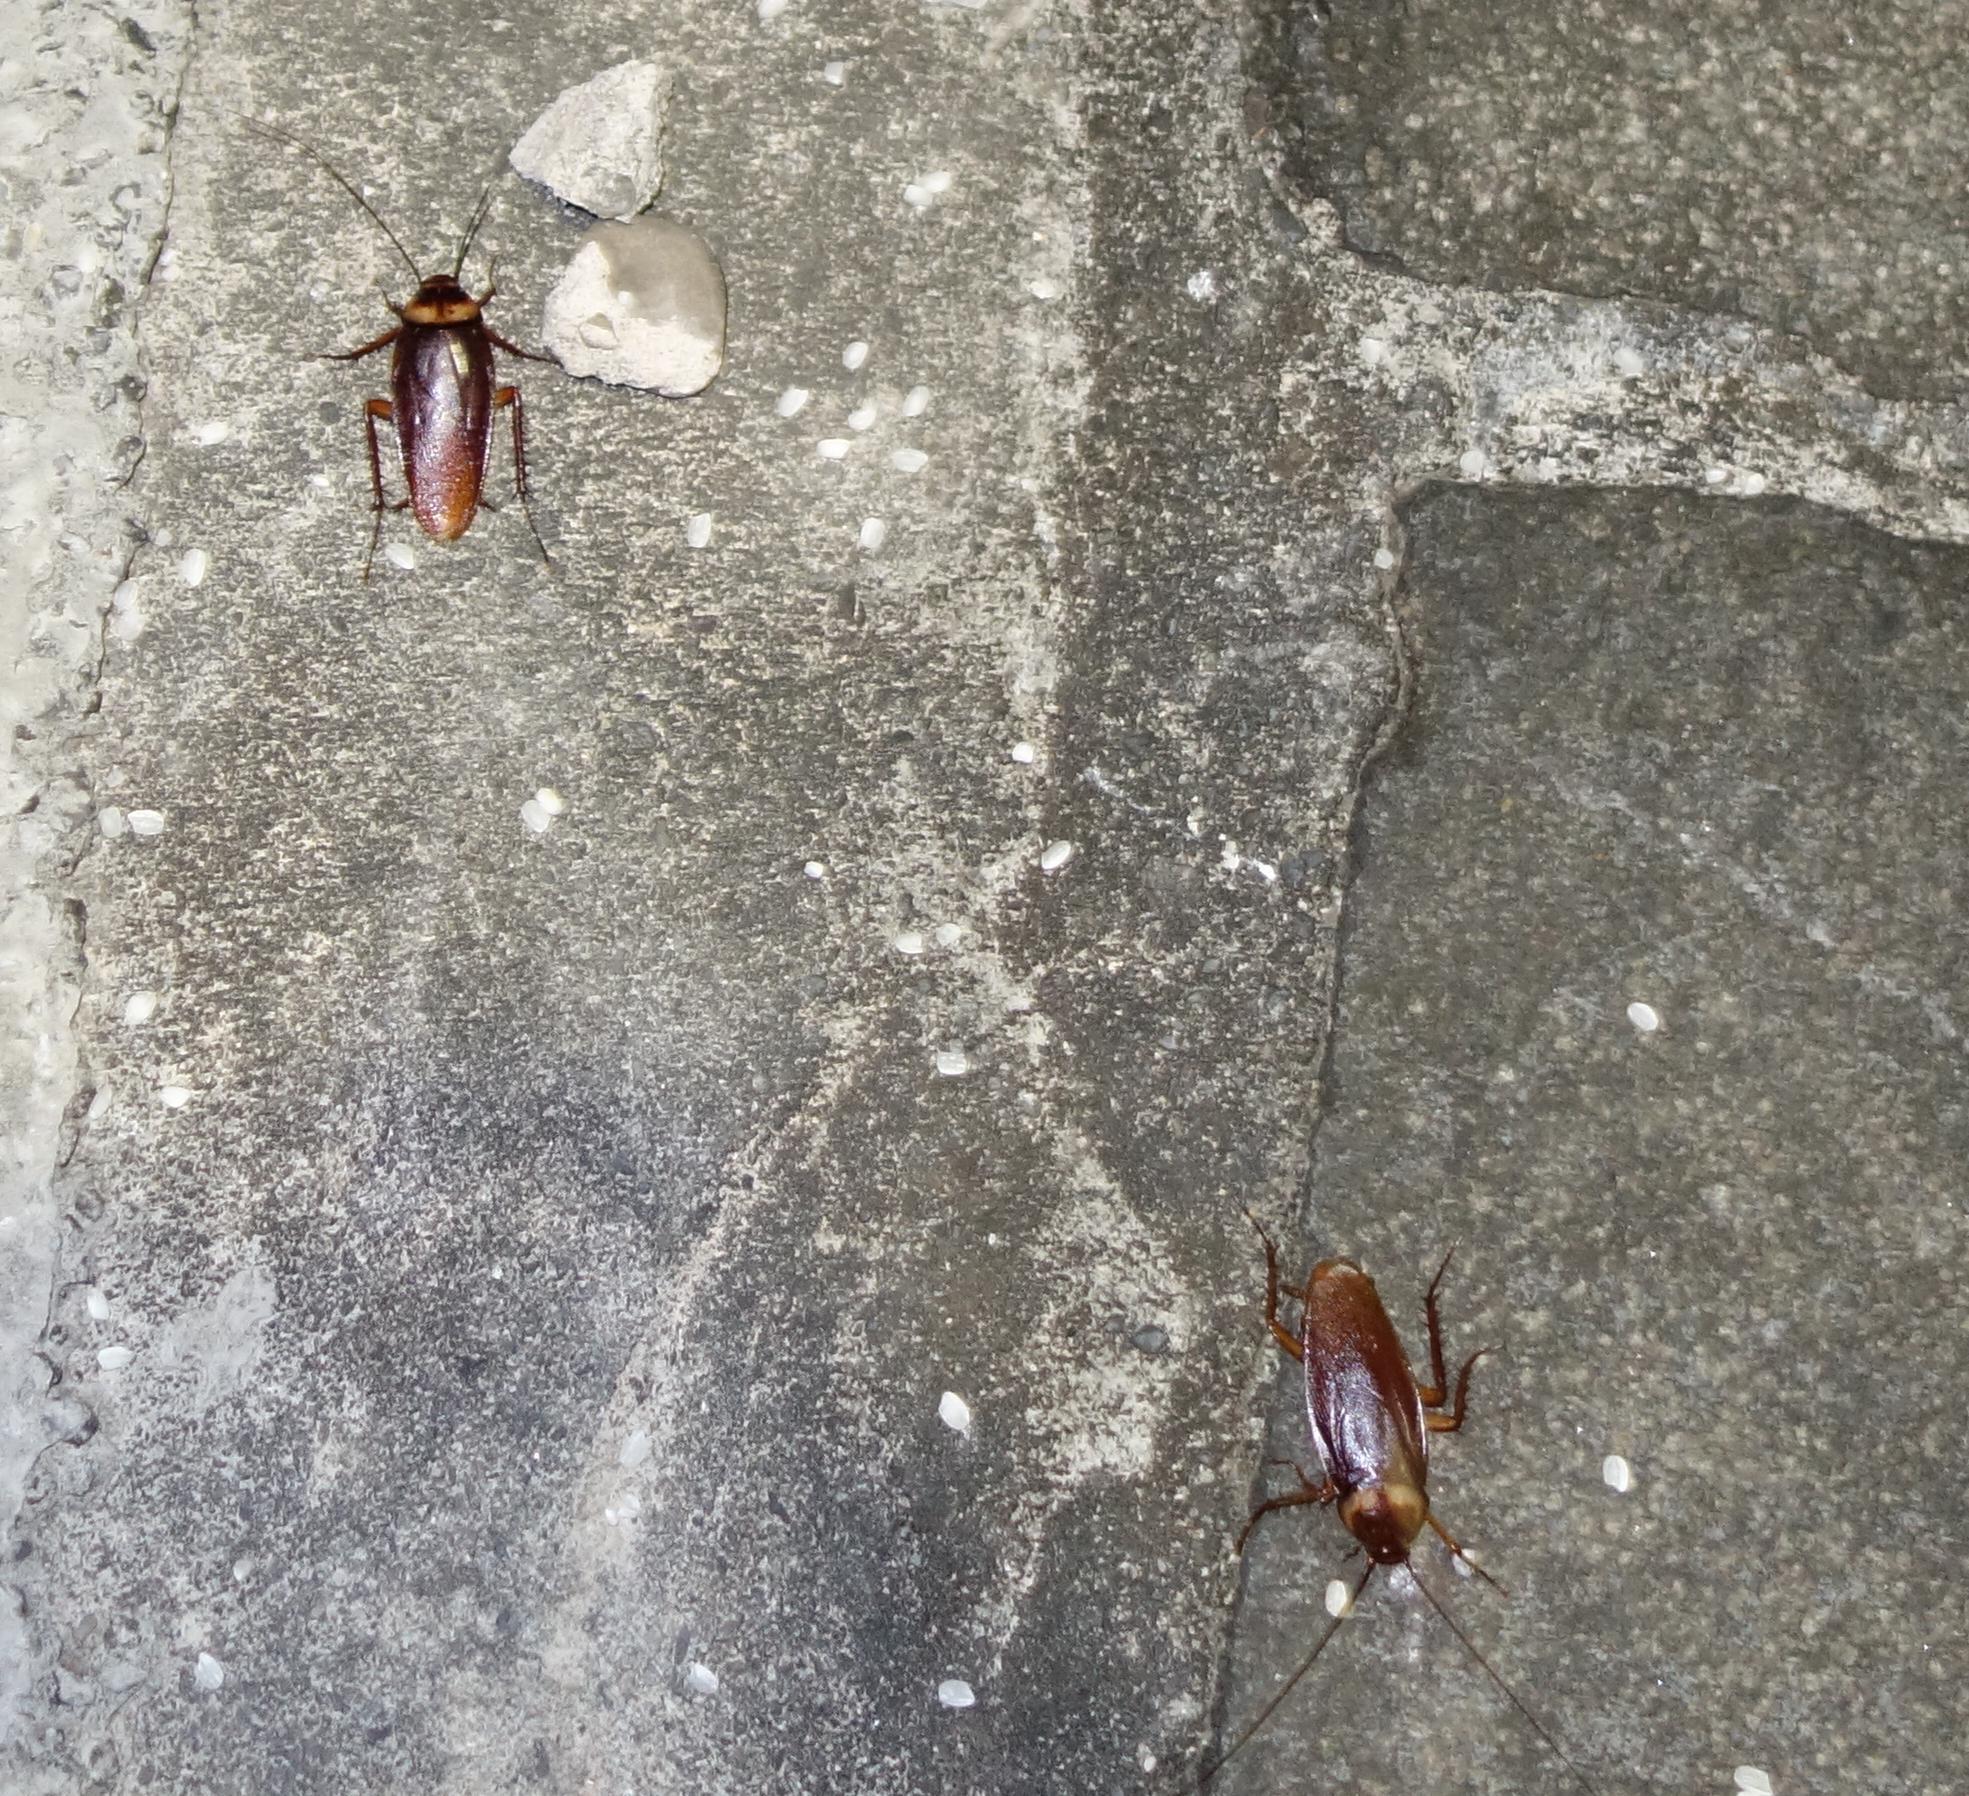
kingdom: Animalia
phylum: Arthropoda
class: Insecta
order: Blattodea
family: Blattidae
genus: Periplaneta
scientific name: Periplaneta americana
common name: American cockroach
